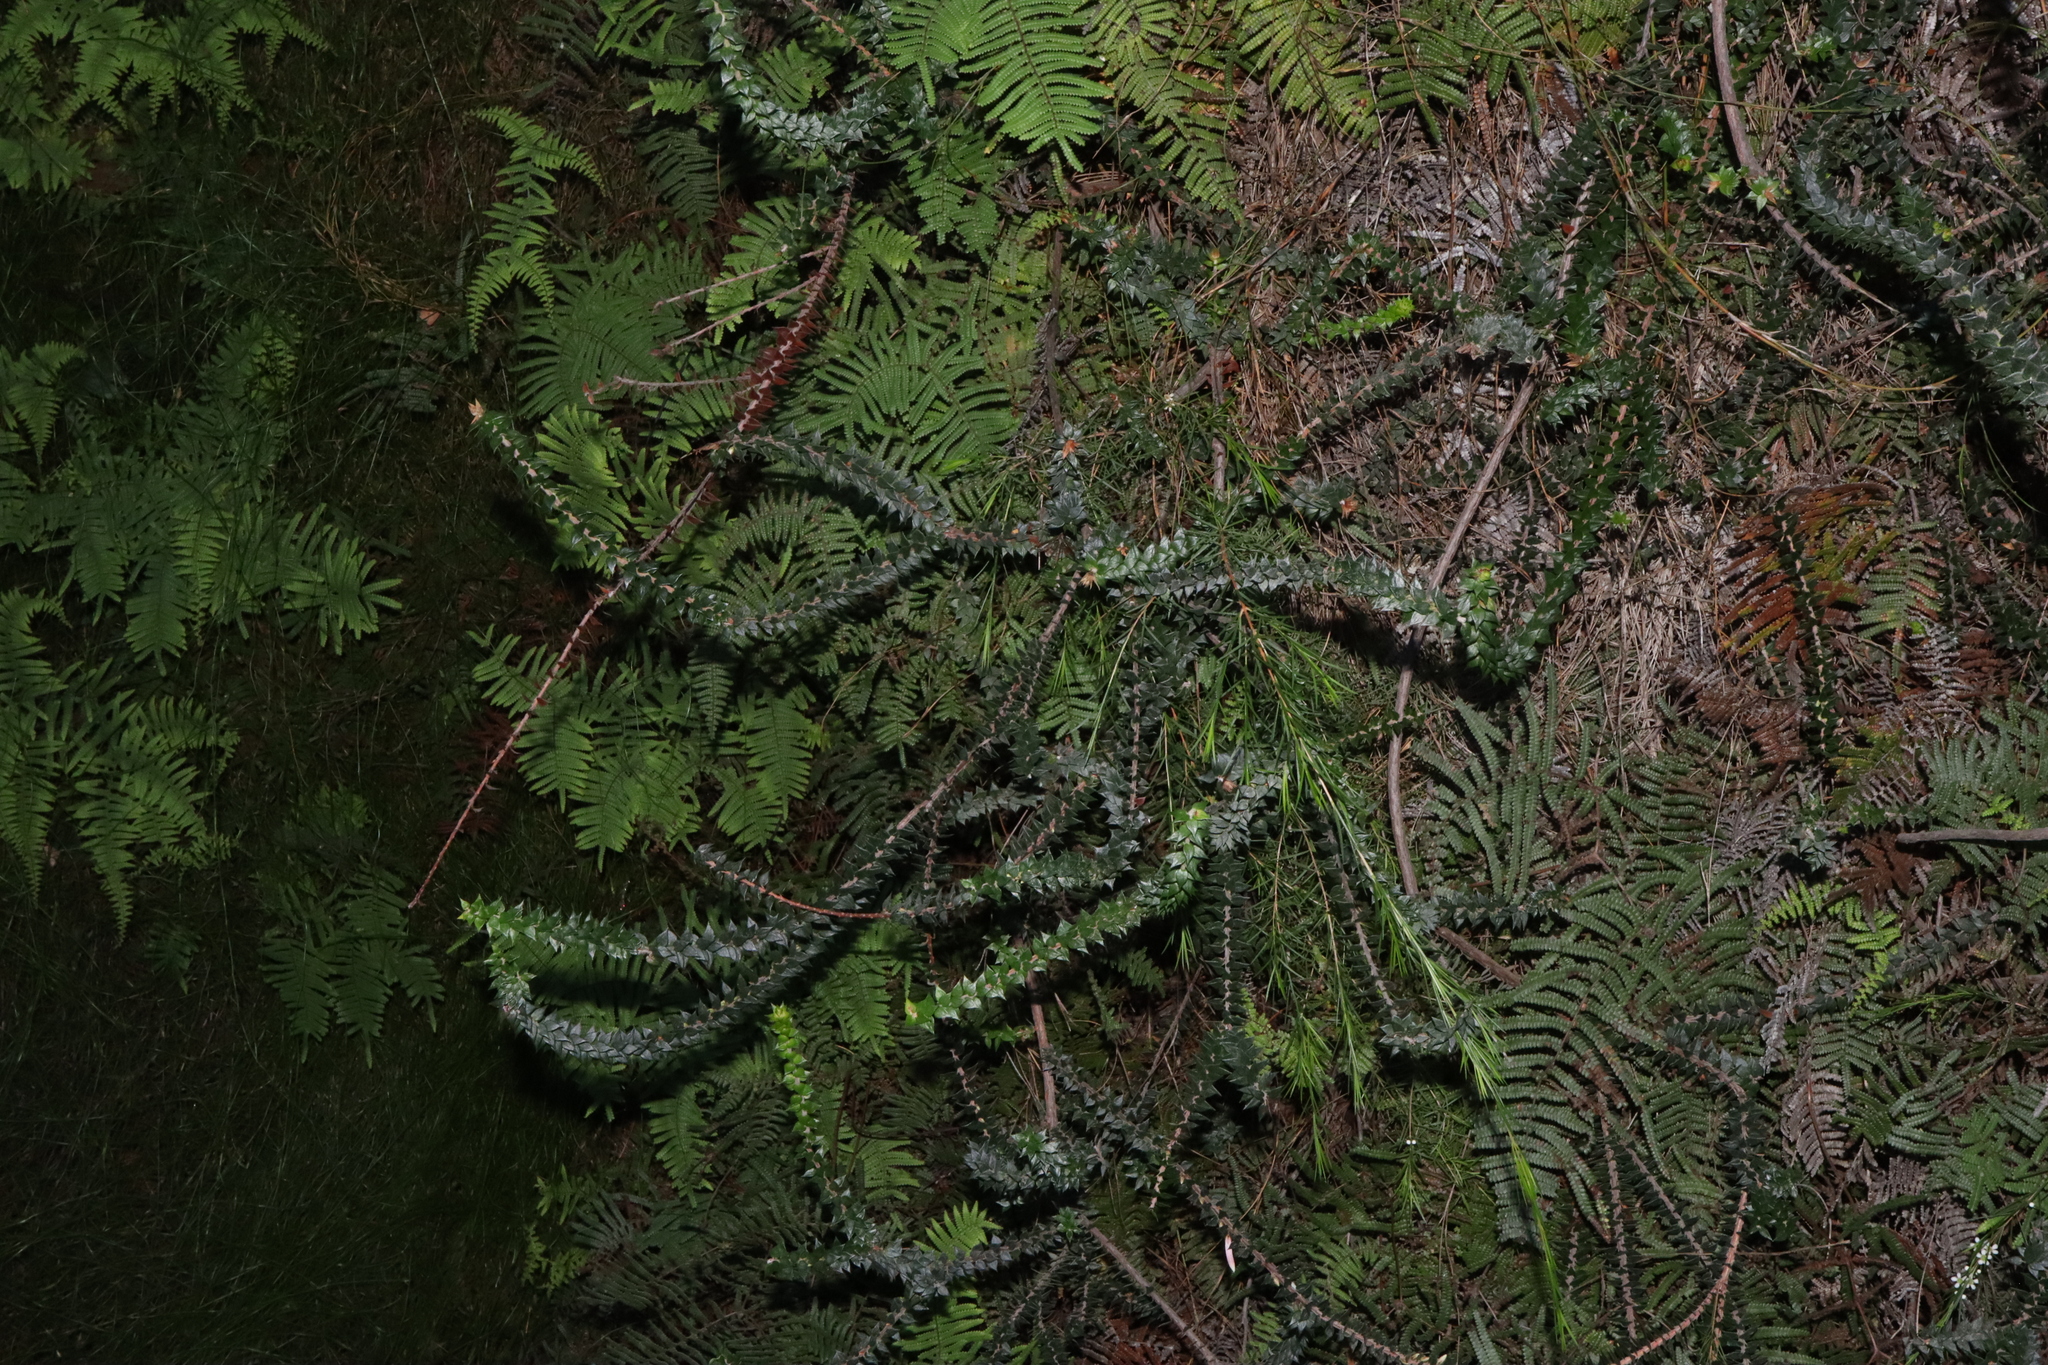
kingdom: Plantae
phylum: Tracheophyta
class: Magnoliopsida
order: Ericales
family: Ericaceae
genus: Epacris
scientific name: Epacris reclinata
